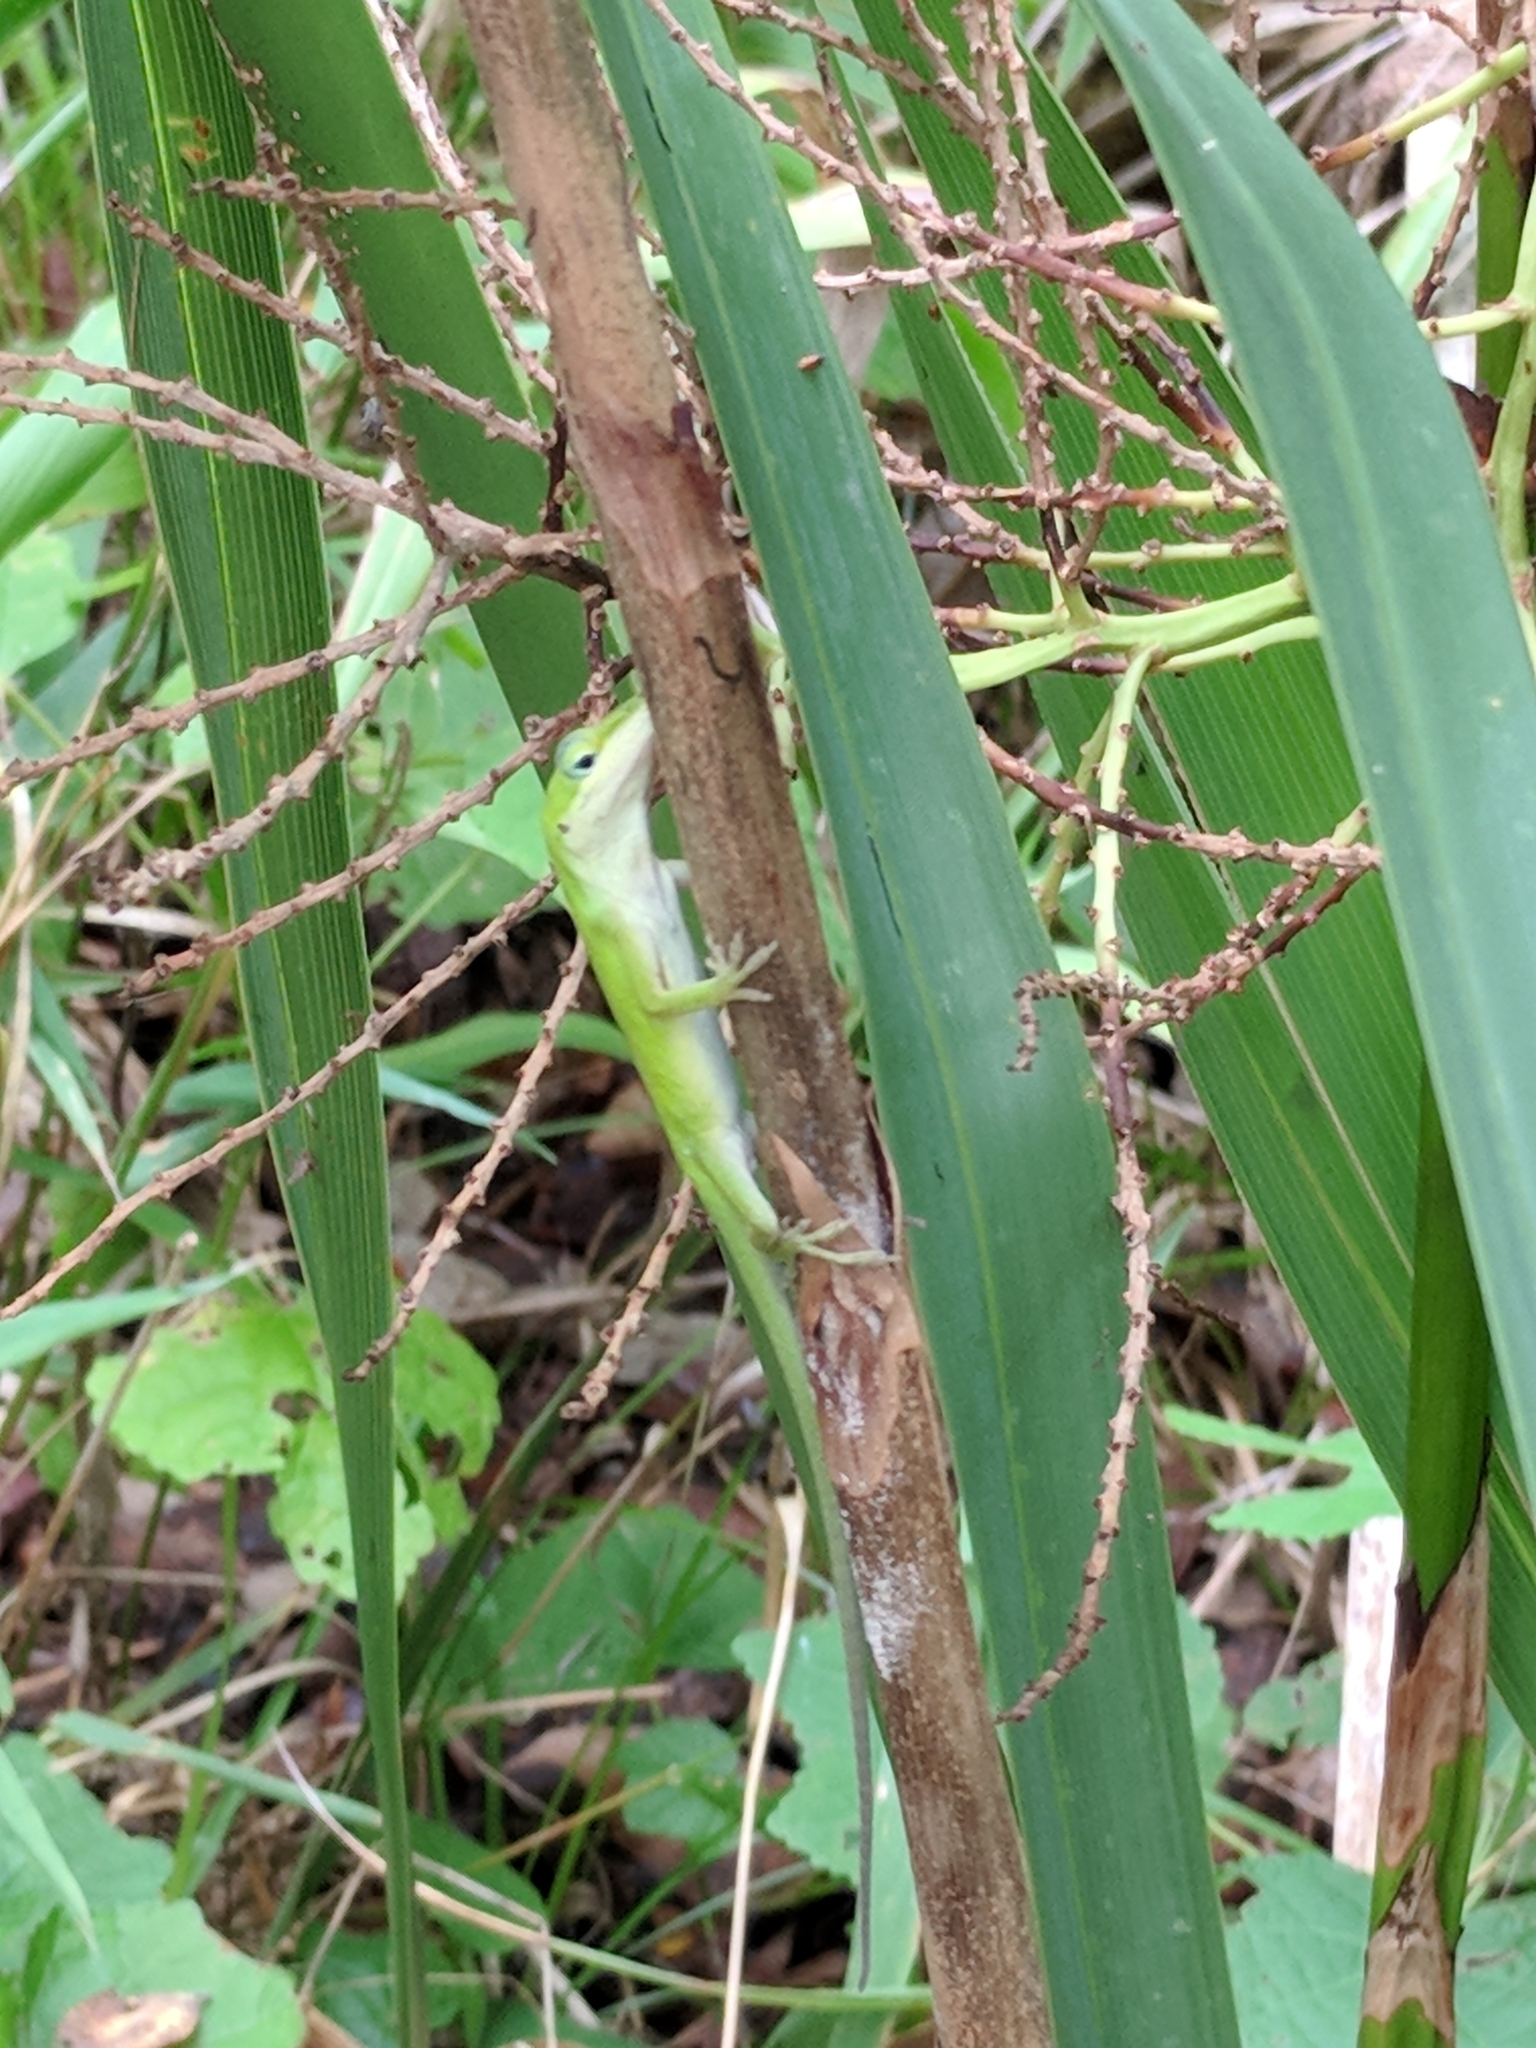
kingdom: Animalia
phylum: Chordata
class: Squamata
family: Dactyloidae
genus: Anolis
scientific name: Anolis carolinensis
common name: Green anole
